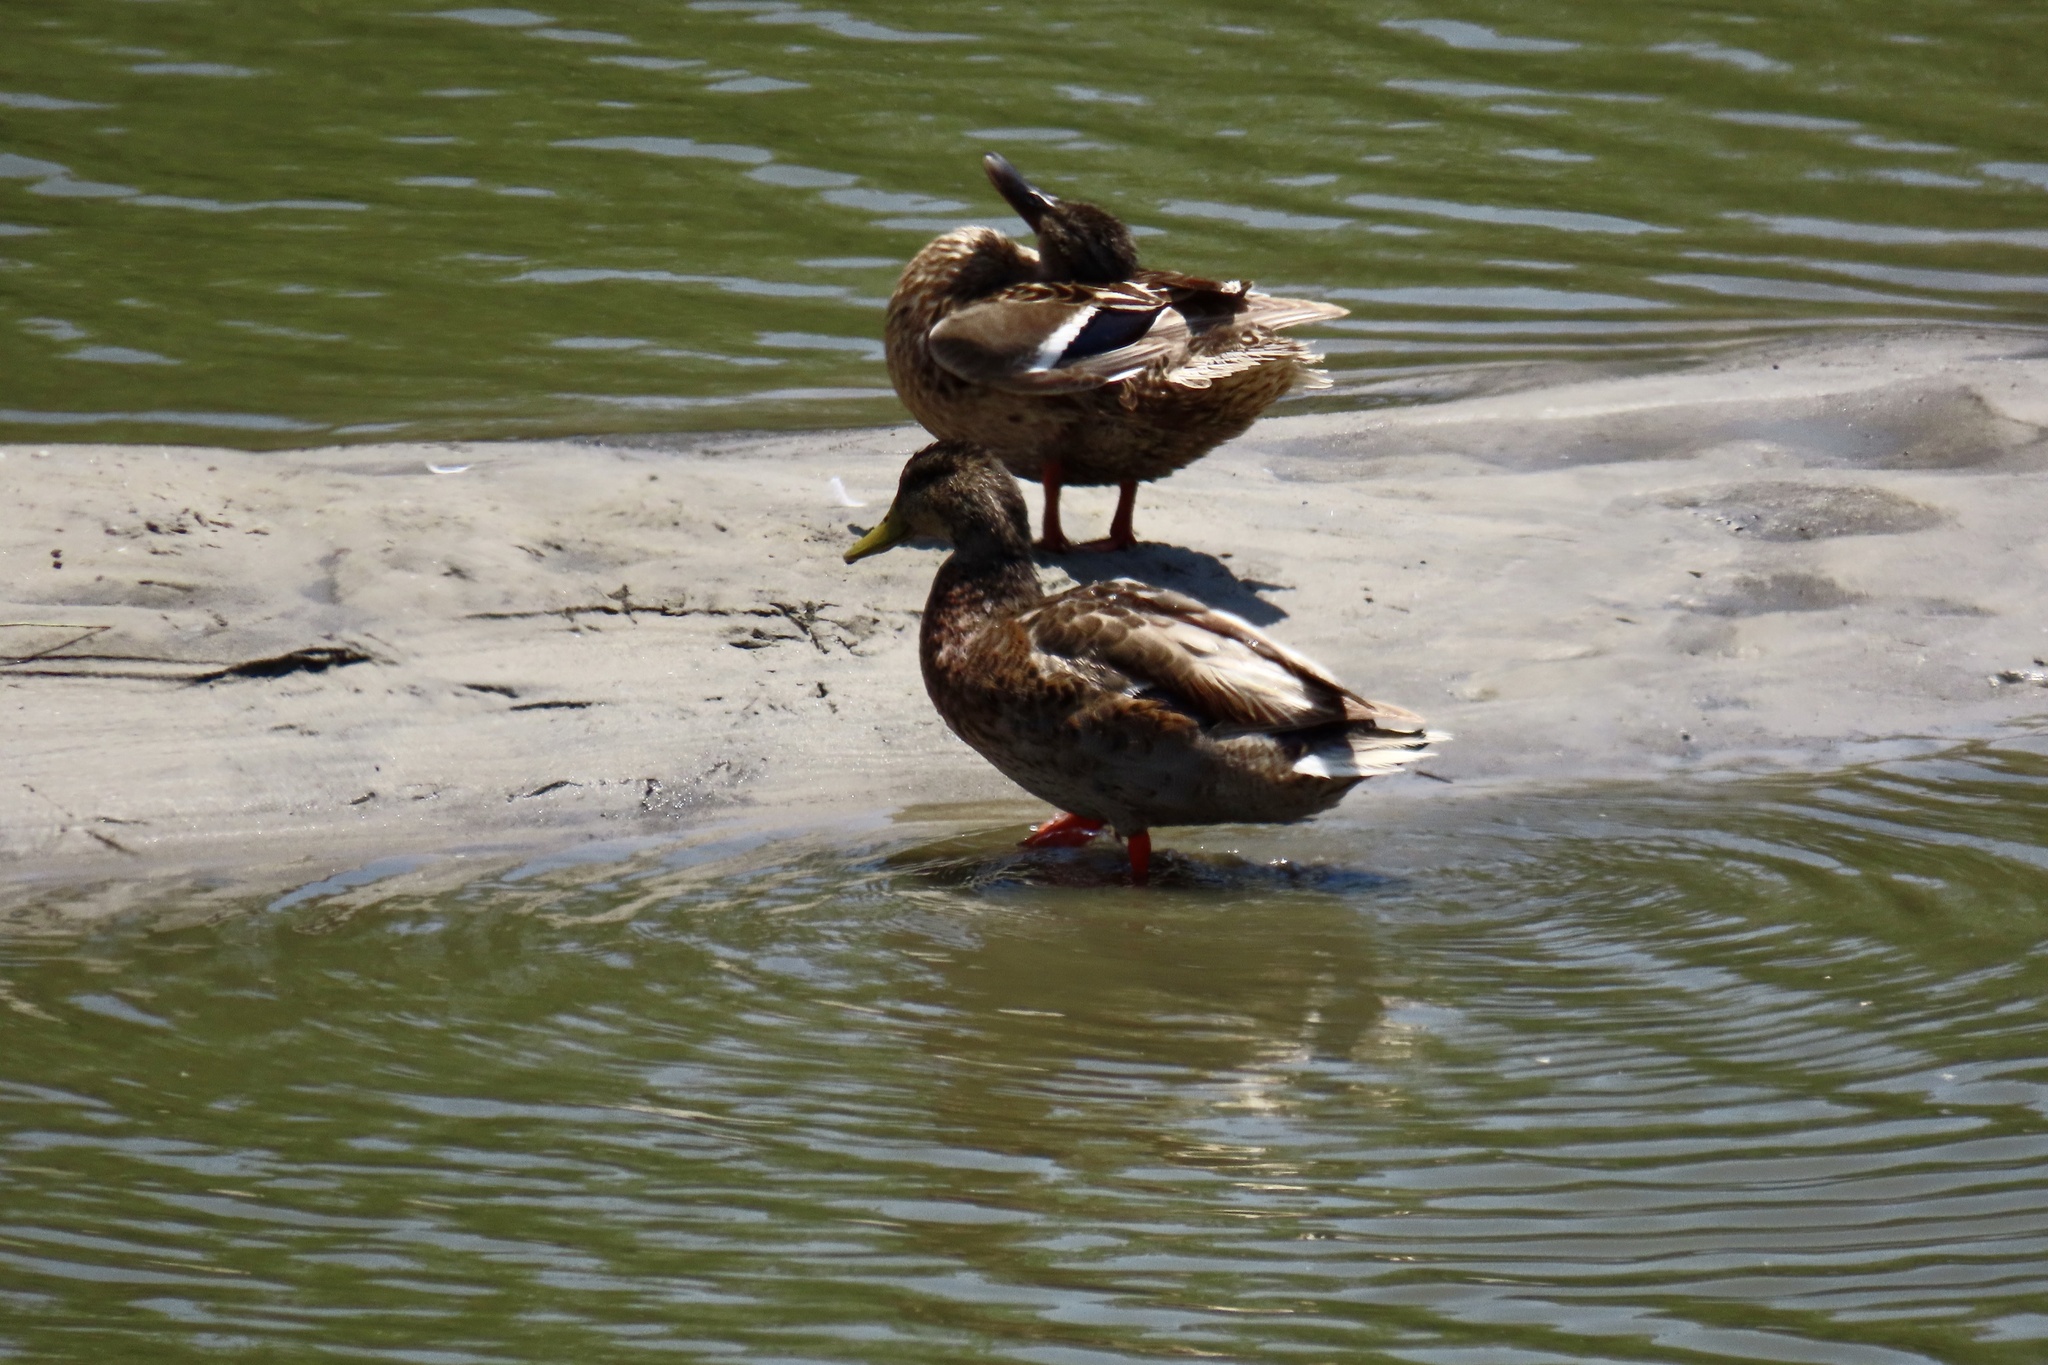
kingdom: Animalia
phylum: Chordata
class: Aves
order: Anseriformes
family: Anatidae
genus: Anas
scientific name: Anas platyrhynchos
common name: Mallard
